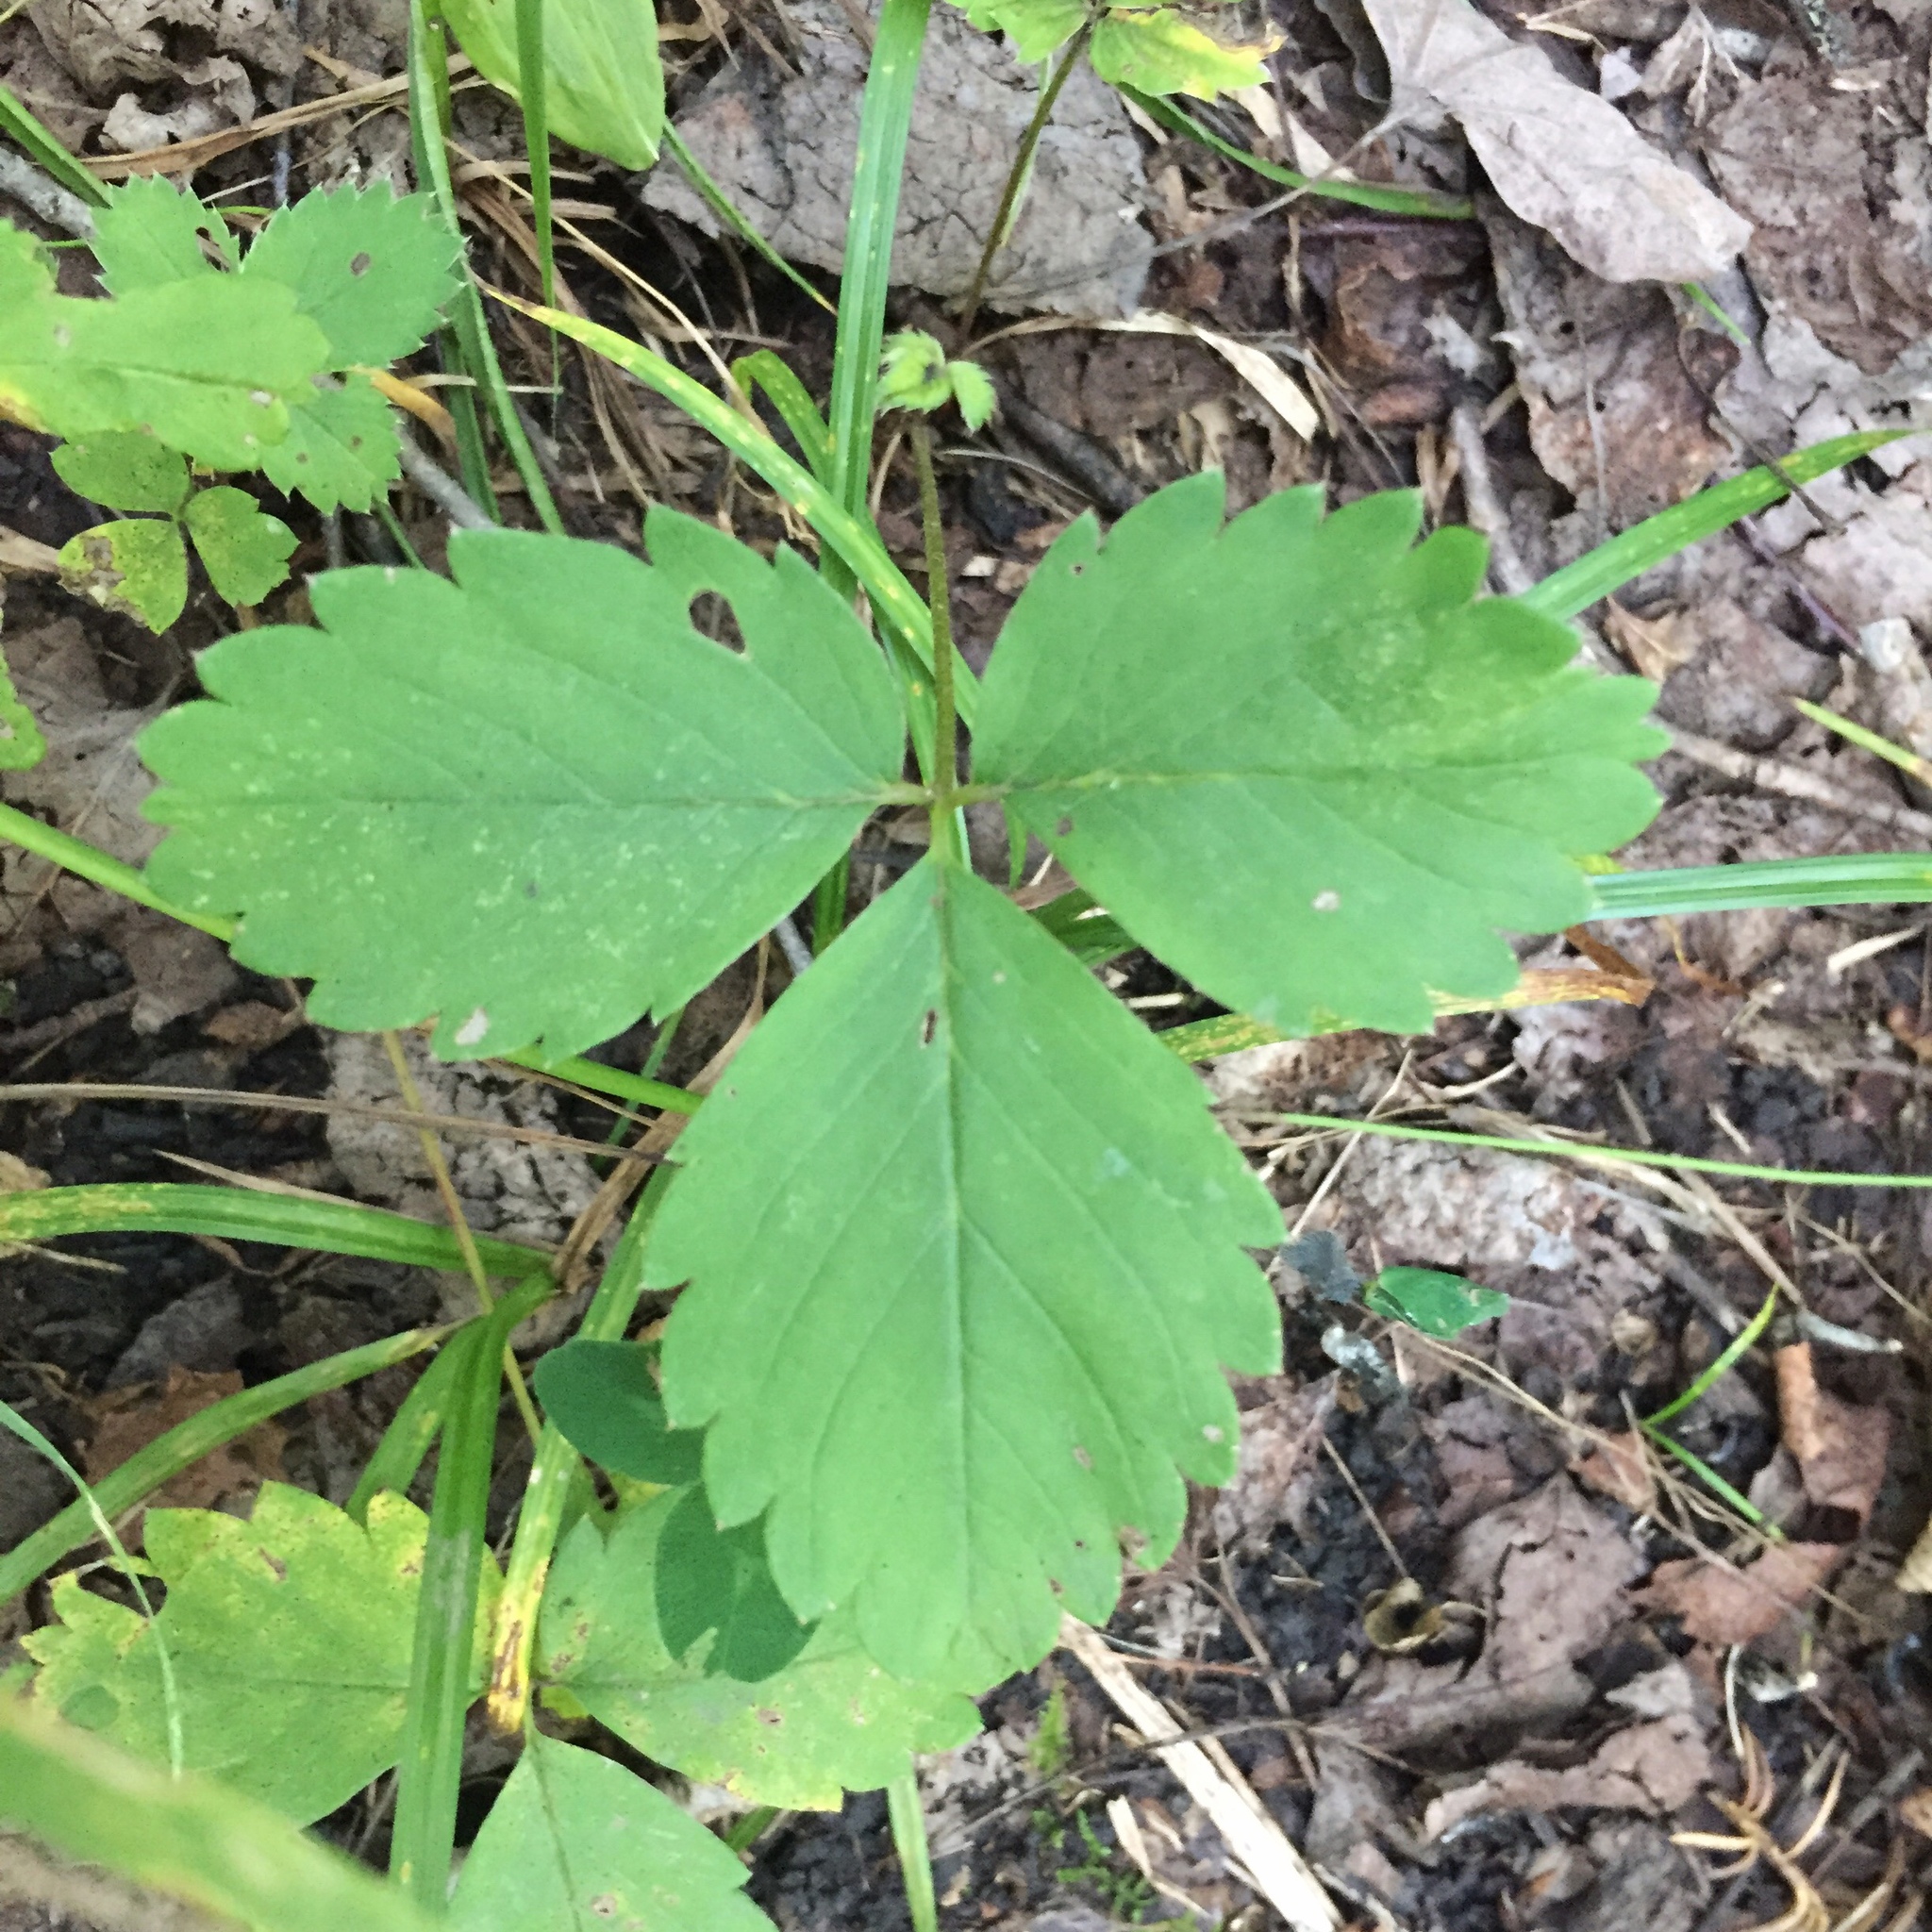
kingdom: Plantae
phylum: Tracheophyta
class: Magnoliopsida
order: Rosales
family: Rosaceae
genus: Fragaria
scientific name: Fragaria virginiana
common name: Thickleaved wild strawberry
